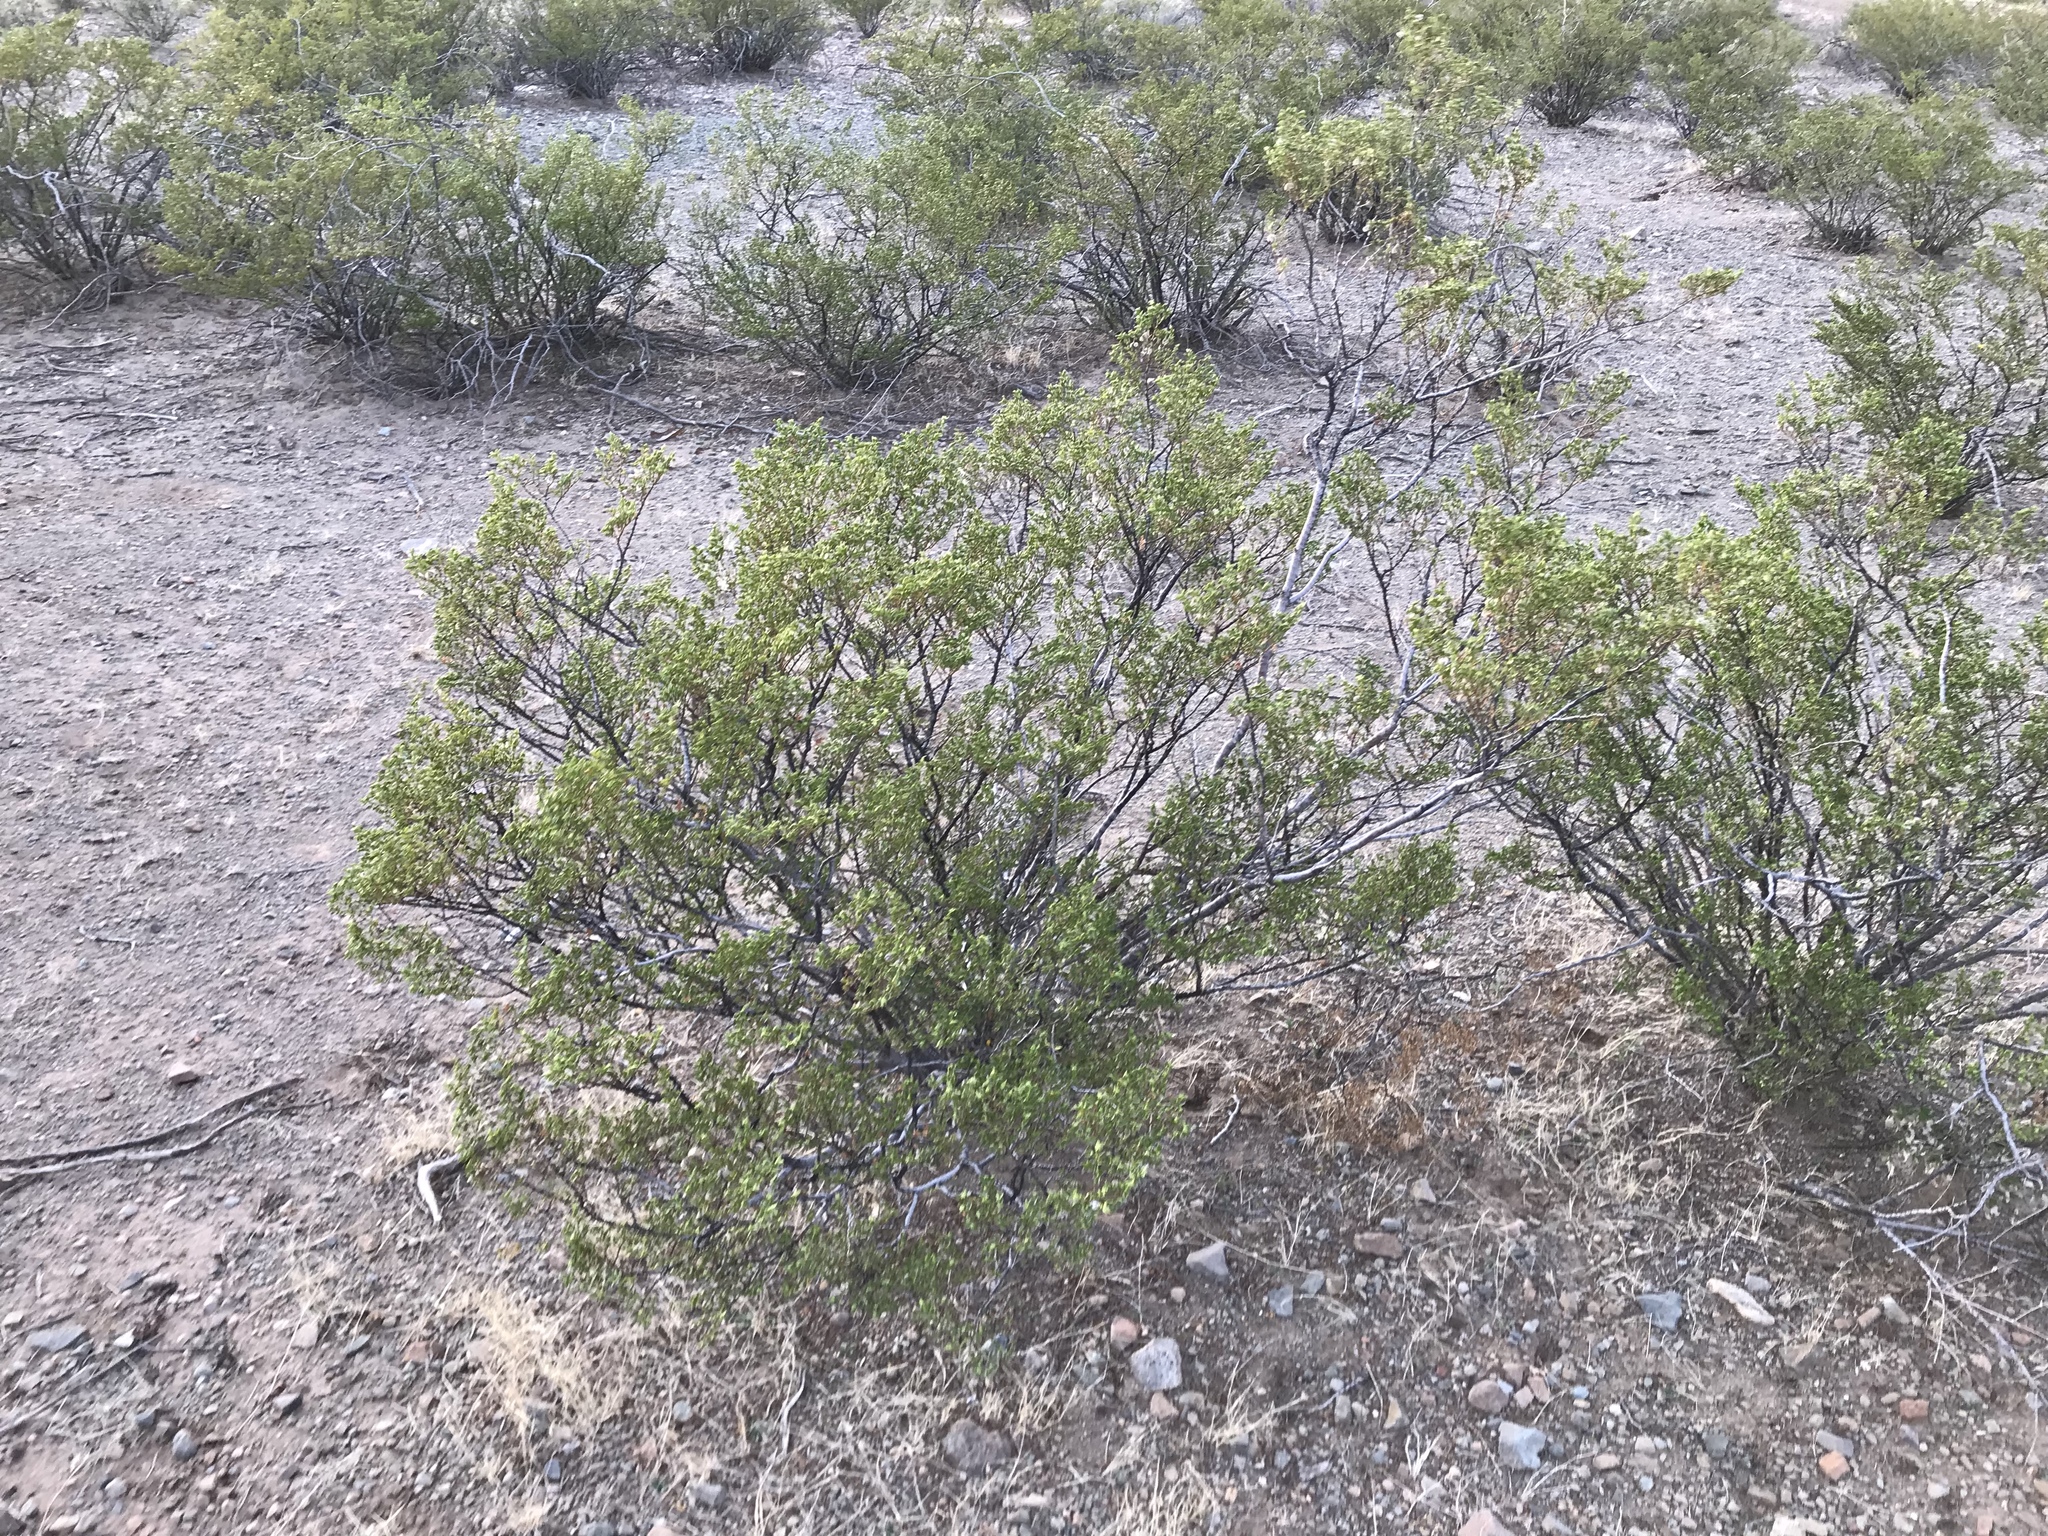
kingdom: Plantae
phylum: Tracheophyta
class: Magnoliopsida
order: Zygophyllales
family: Zygophyllaceae
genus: Larrea
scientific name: Larrea tridentata
